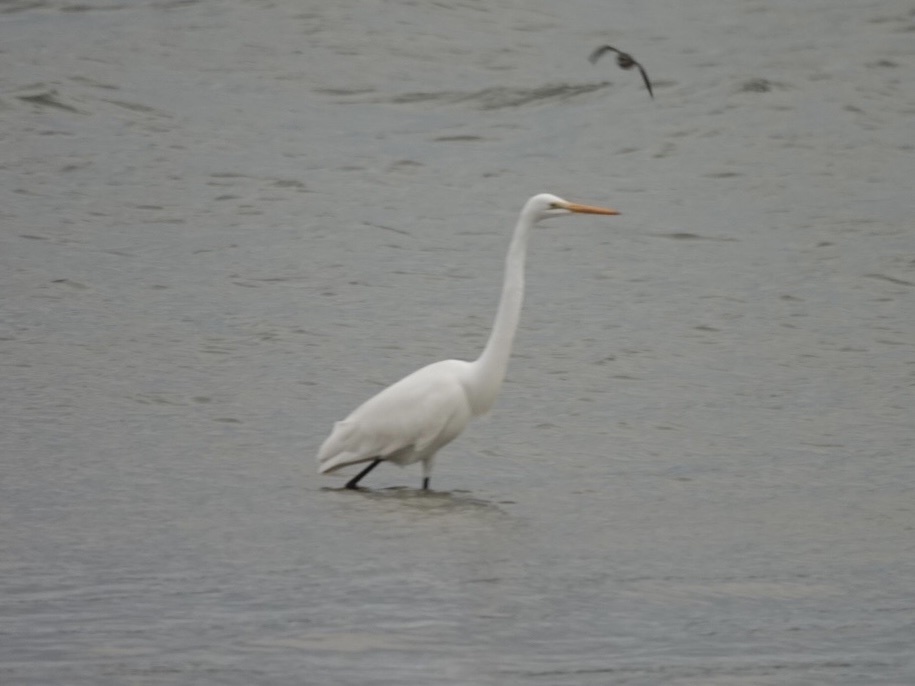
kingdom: Animalia
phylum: Chordata
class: Aves
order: Pelecaniformes
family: Ardeidae
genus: Ardea
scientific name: Ardea alba
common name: Great egret
